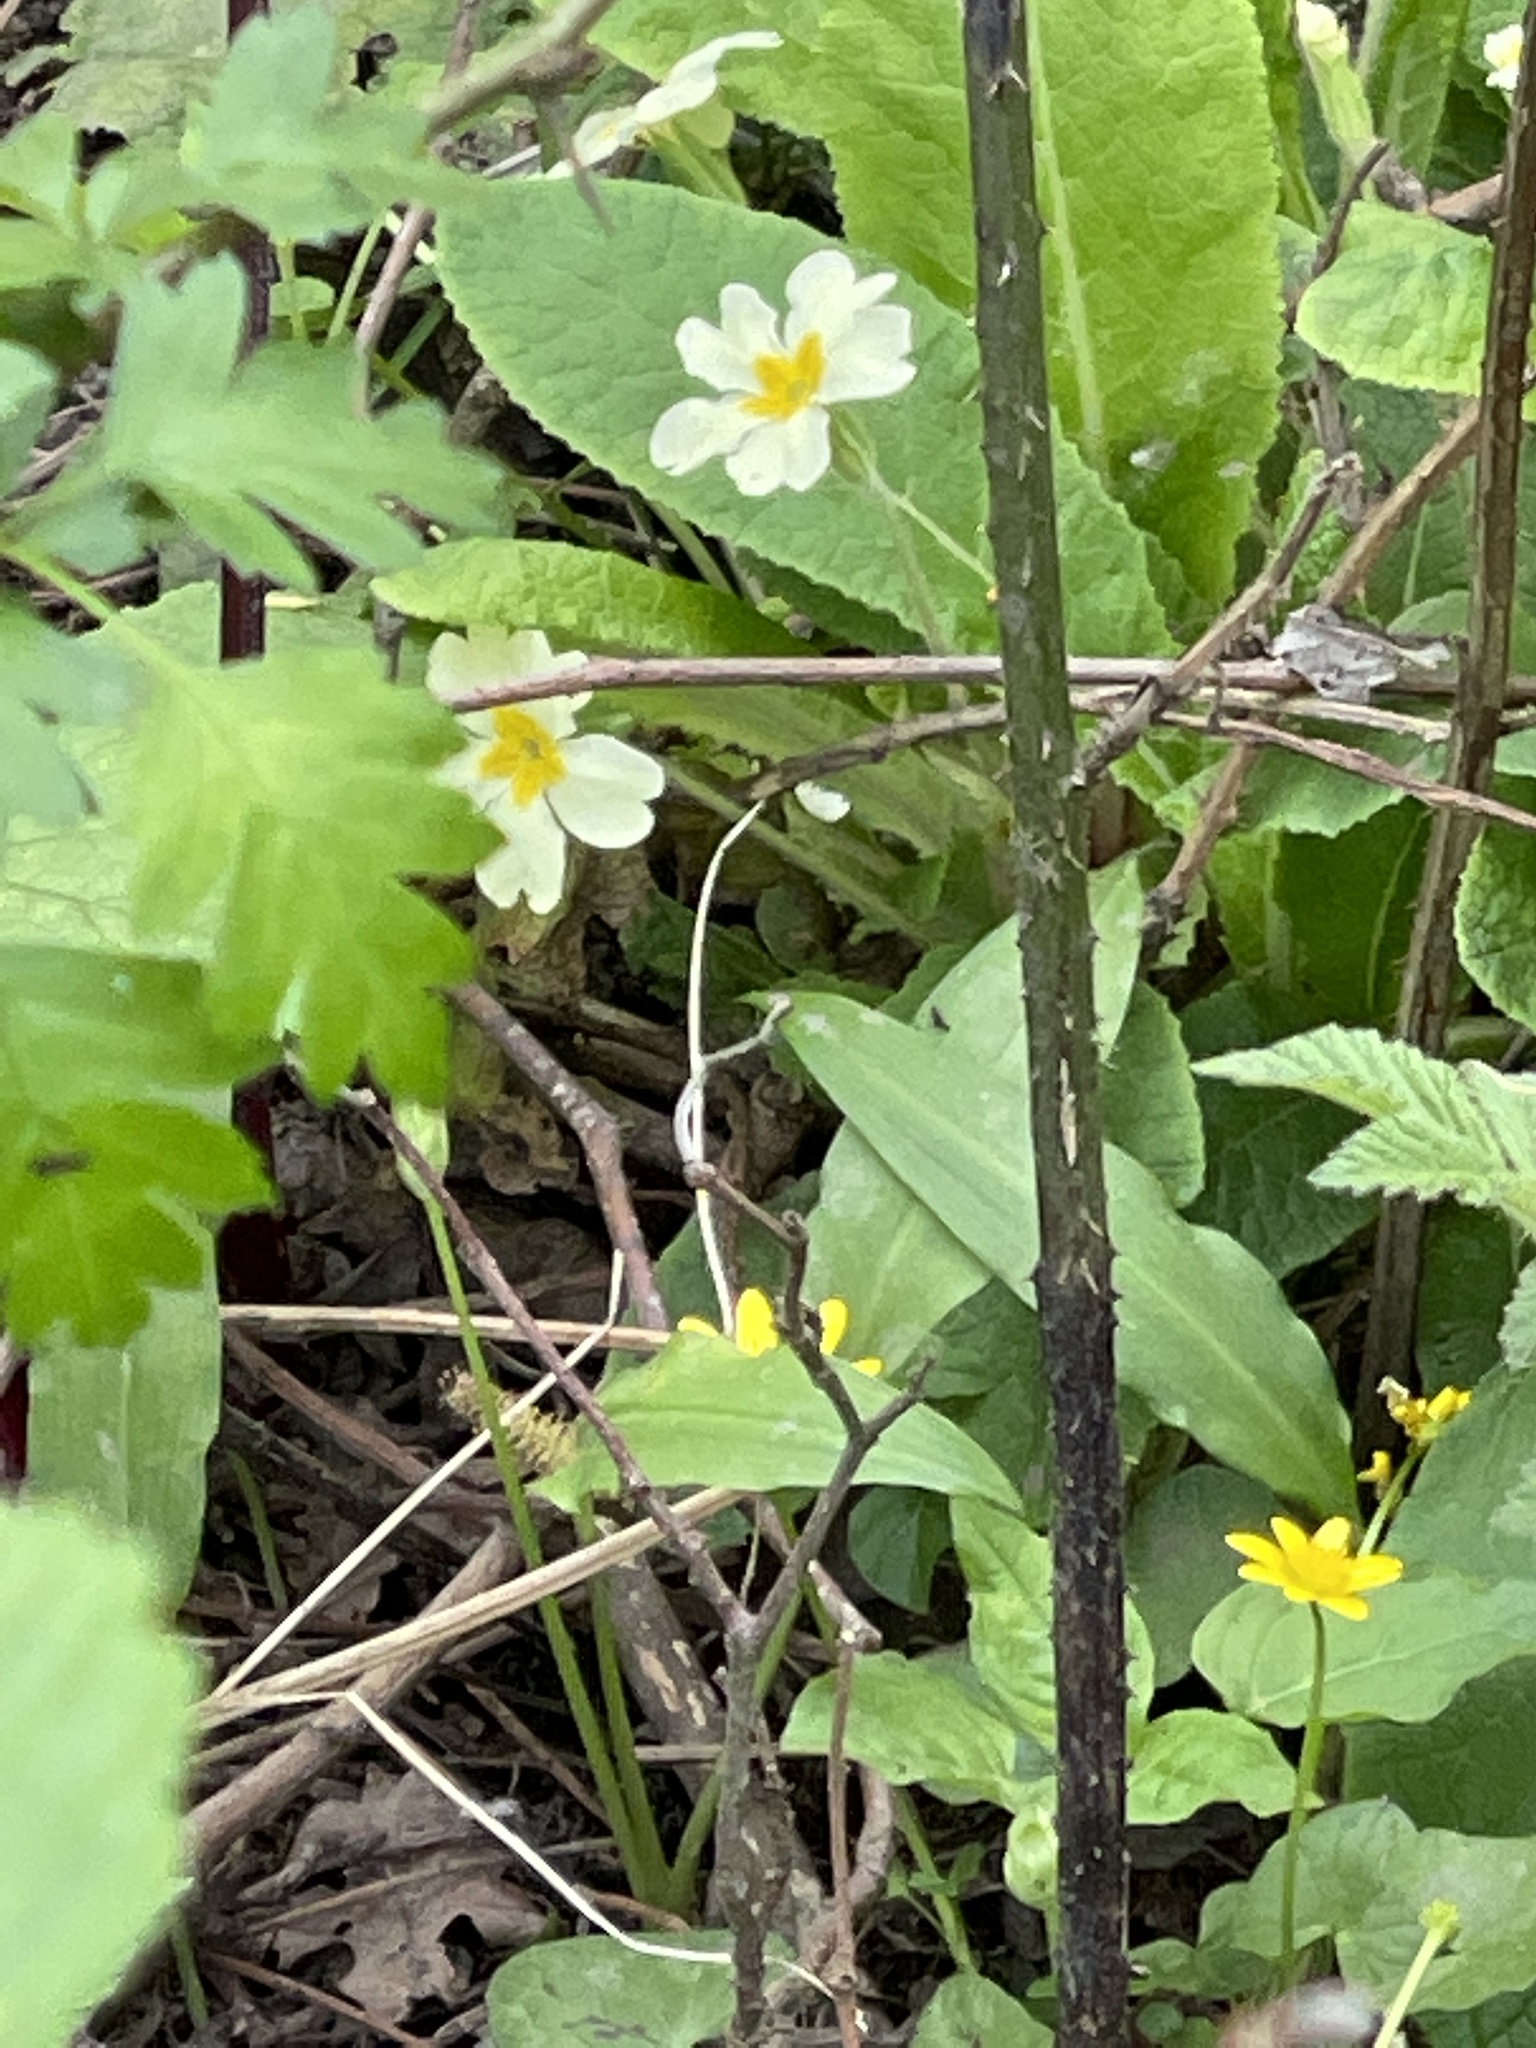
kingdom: Plantae
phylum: Tracheophyta
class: Magnoliopsida
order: Ericales
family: Primulaceae
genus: Primula
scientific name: Primula vulgaris
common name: Primrose
